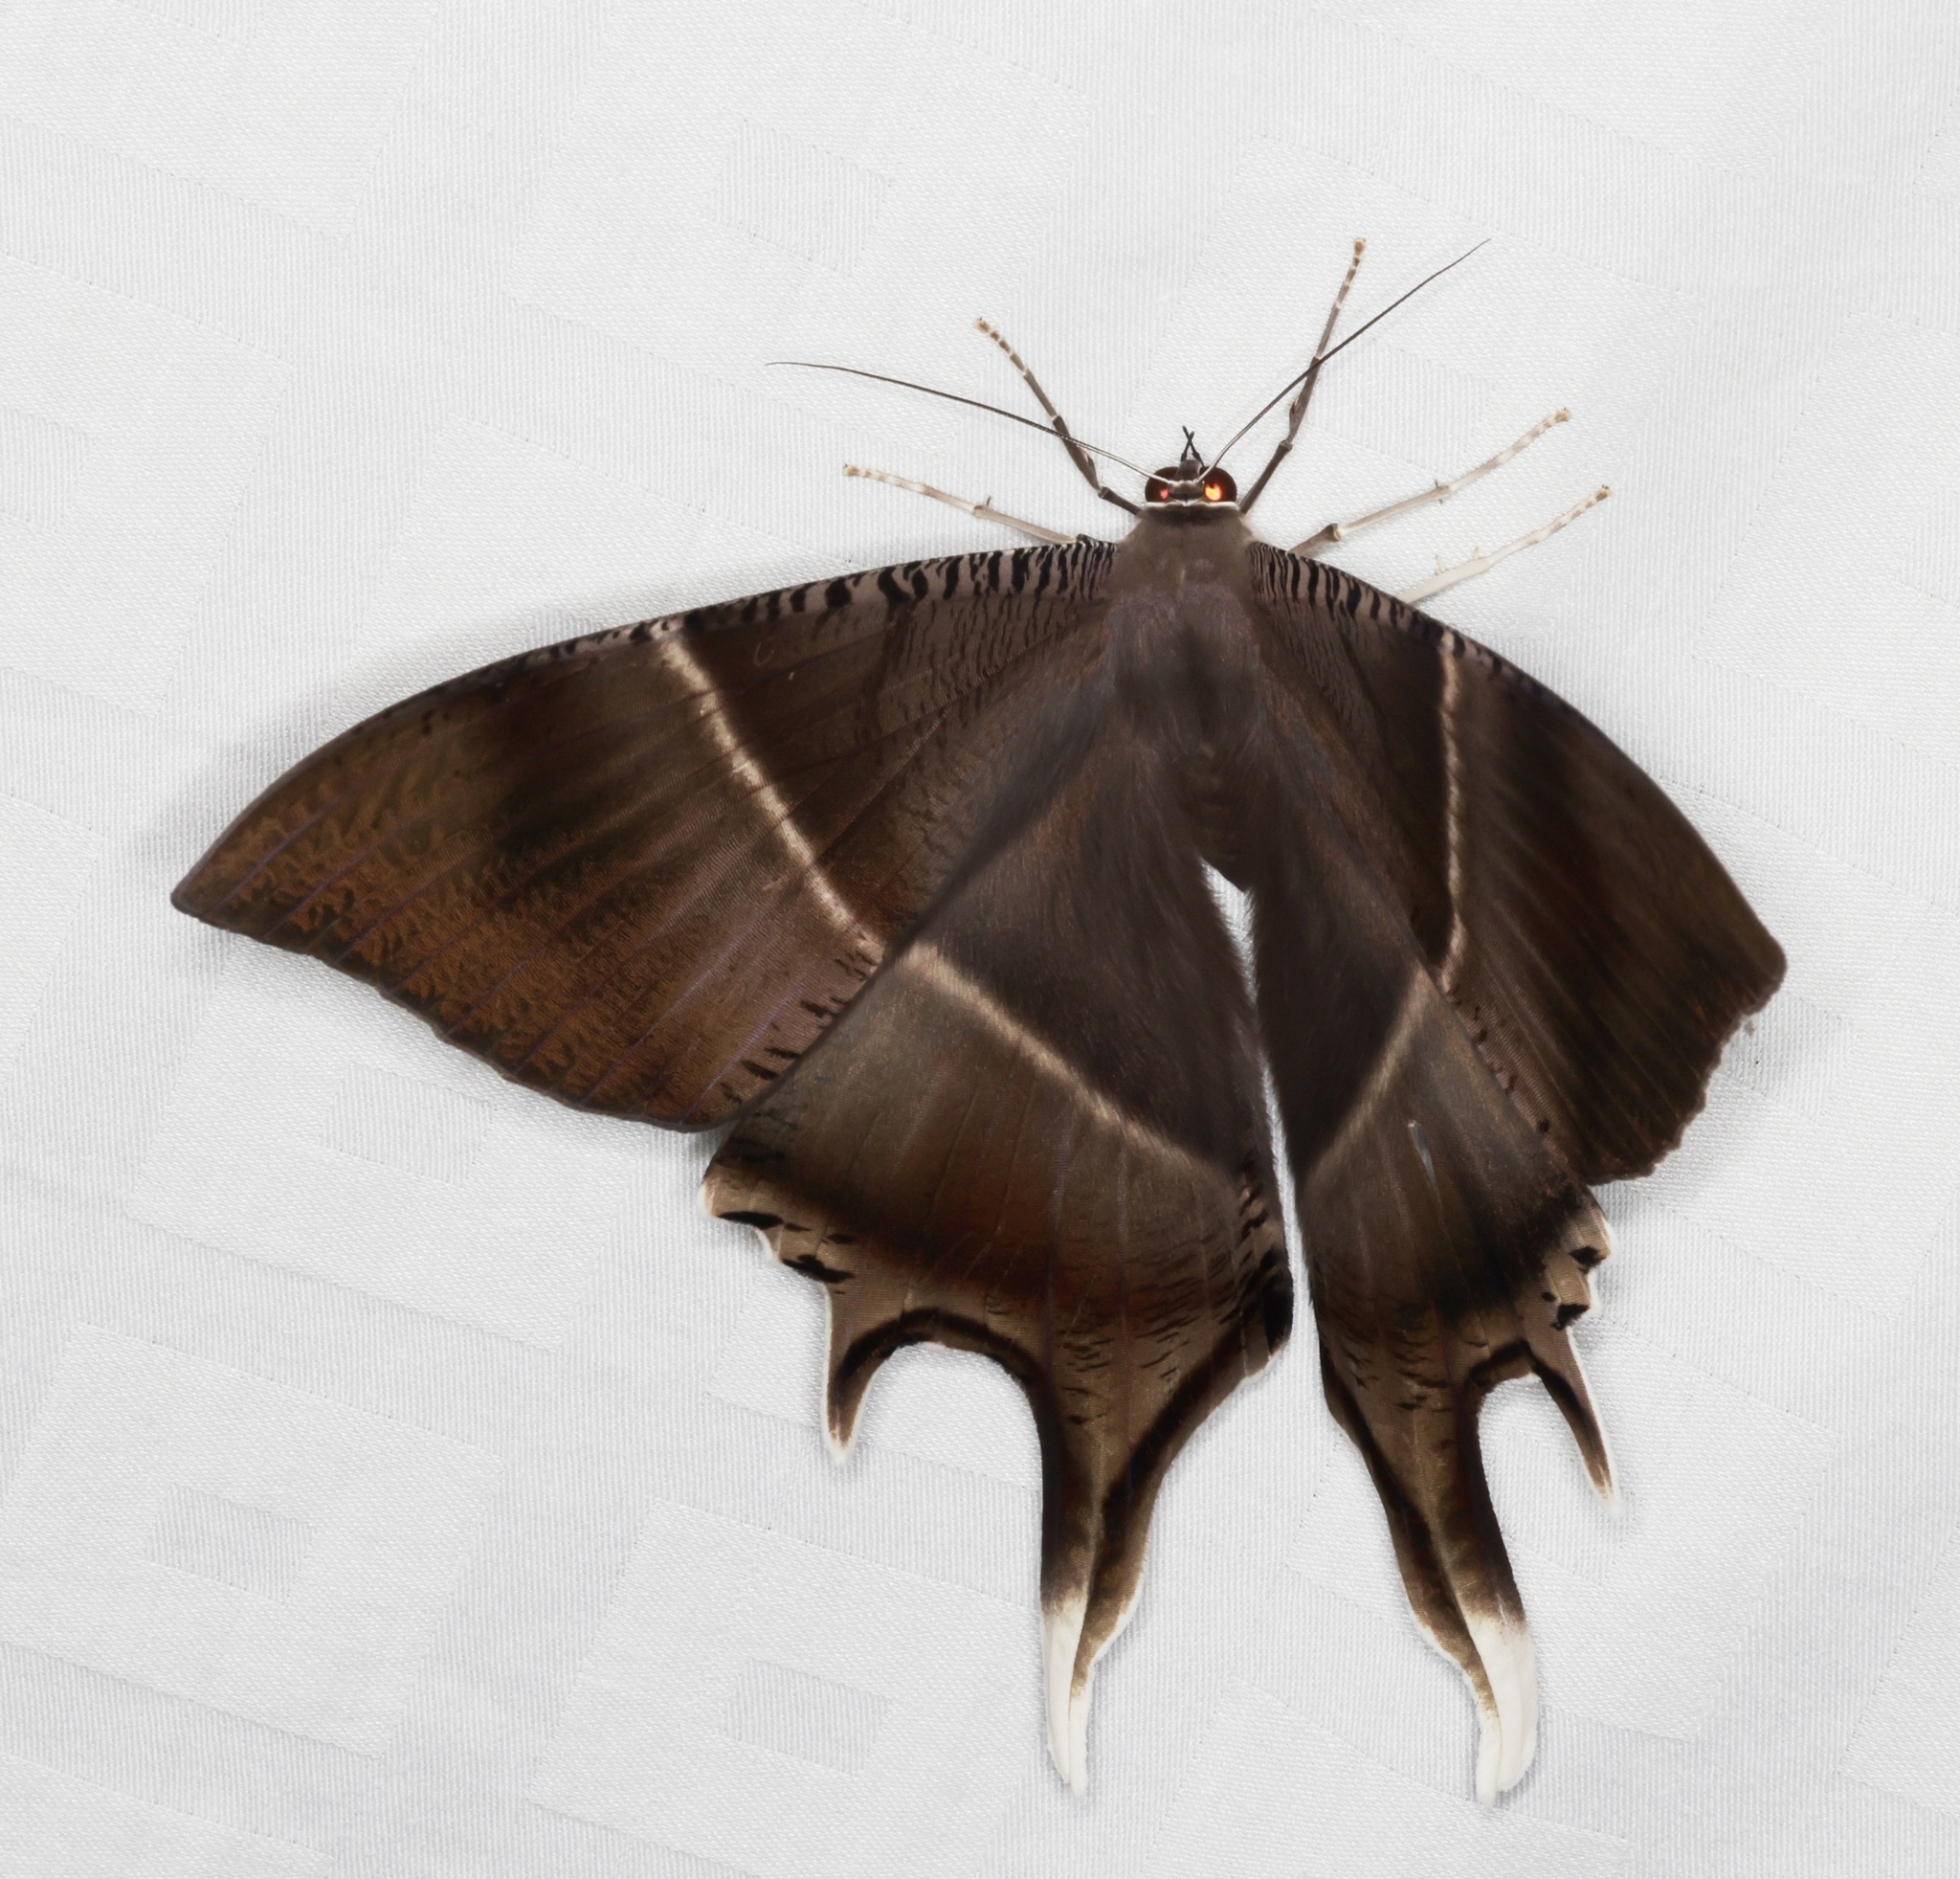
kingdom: Animalia
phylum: Arthropoda
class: Insecta
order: Lepidoptera
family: Uraniidae
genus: Lyssa
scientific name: Lyssa zampa
